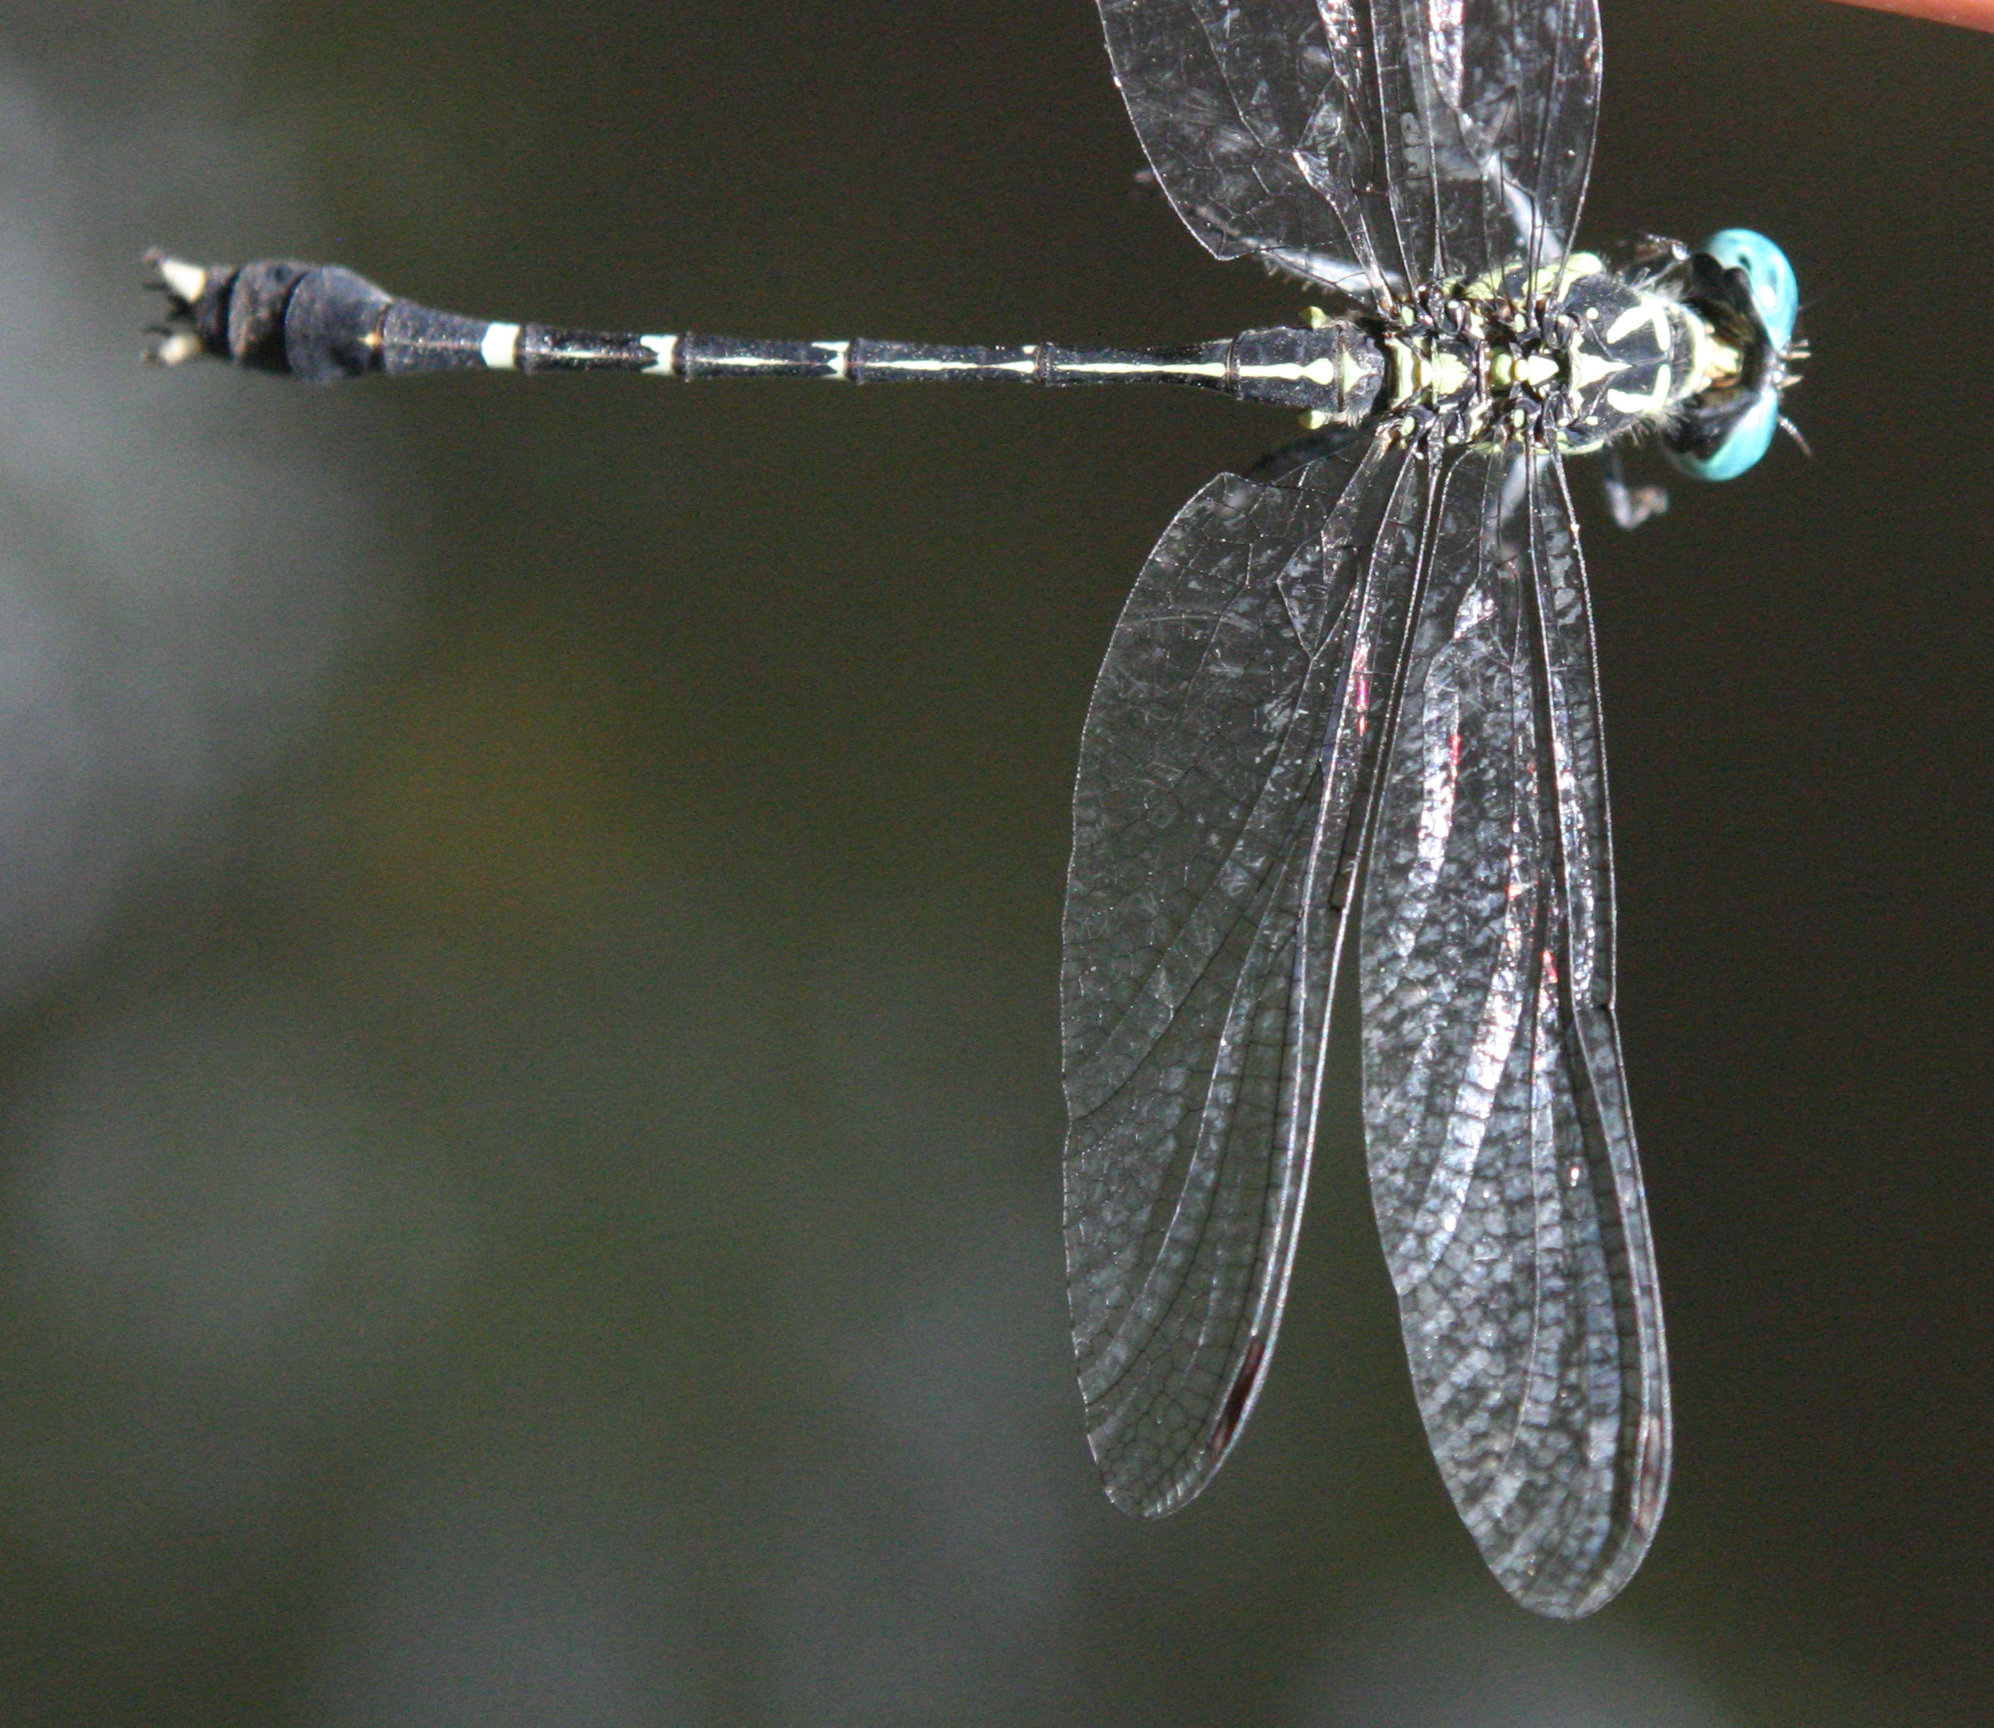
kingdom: Animalia
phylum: Arthropoda
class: Insecta
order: Odonata
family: Gomphidae
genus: Microgomphus
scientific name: Microgomphus alani
